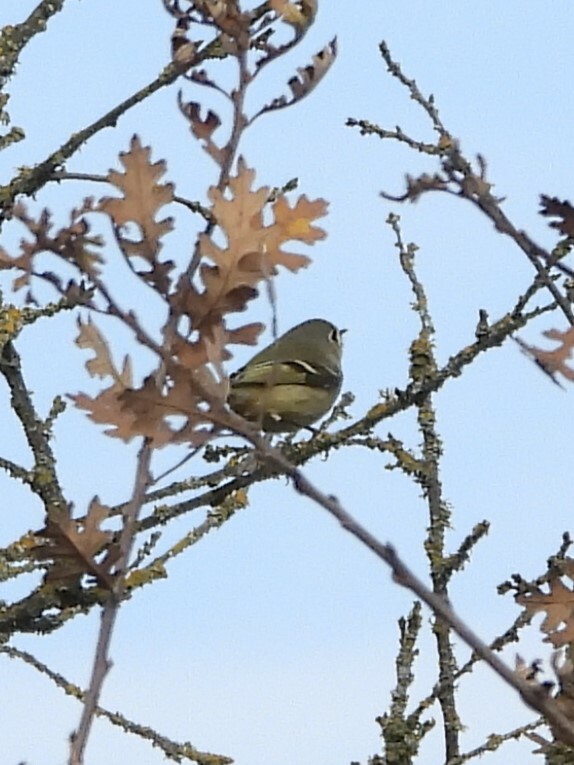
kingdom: Animalia
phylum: Chordata
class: Aves
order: Passeriformes
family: Regulidae
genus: Regulus
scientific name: Regulus calendula
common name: Ruby-crowned kinglet
